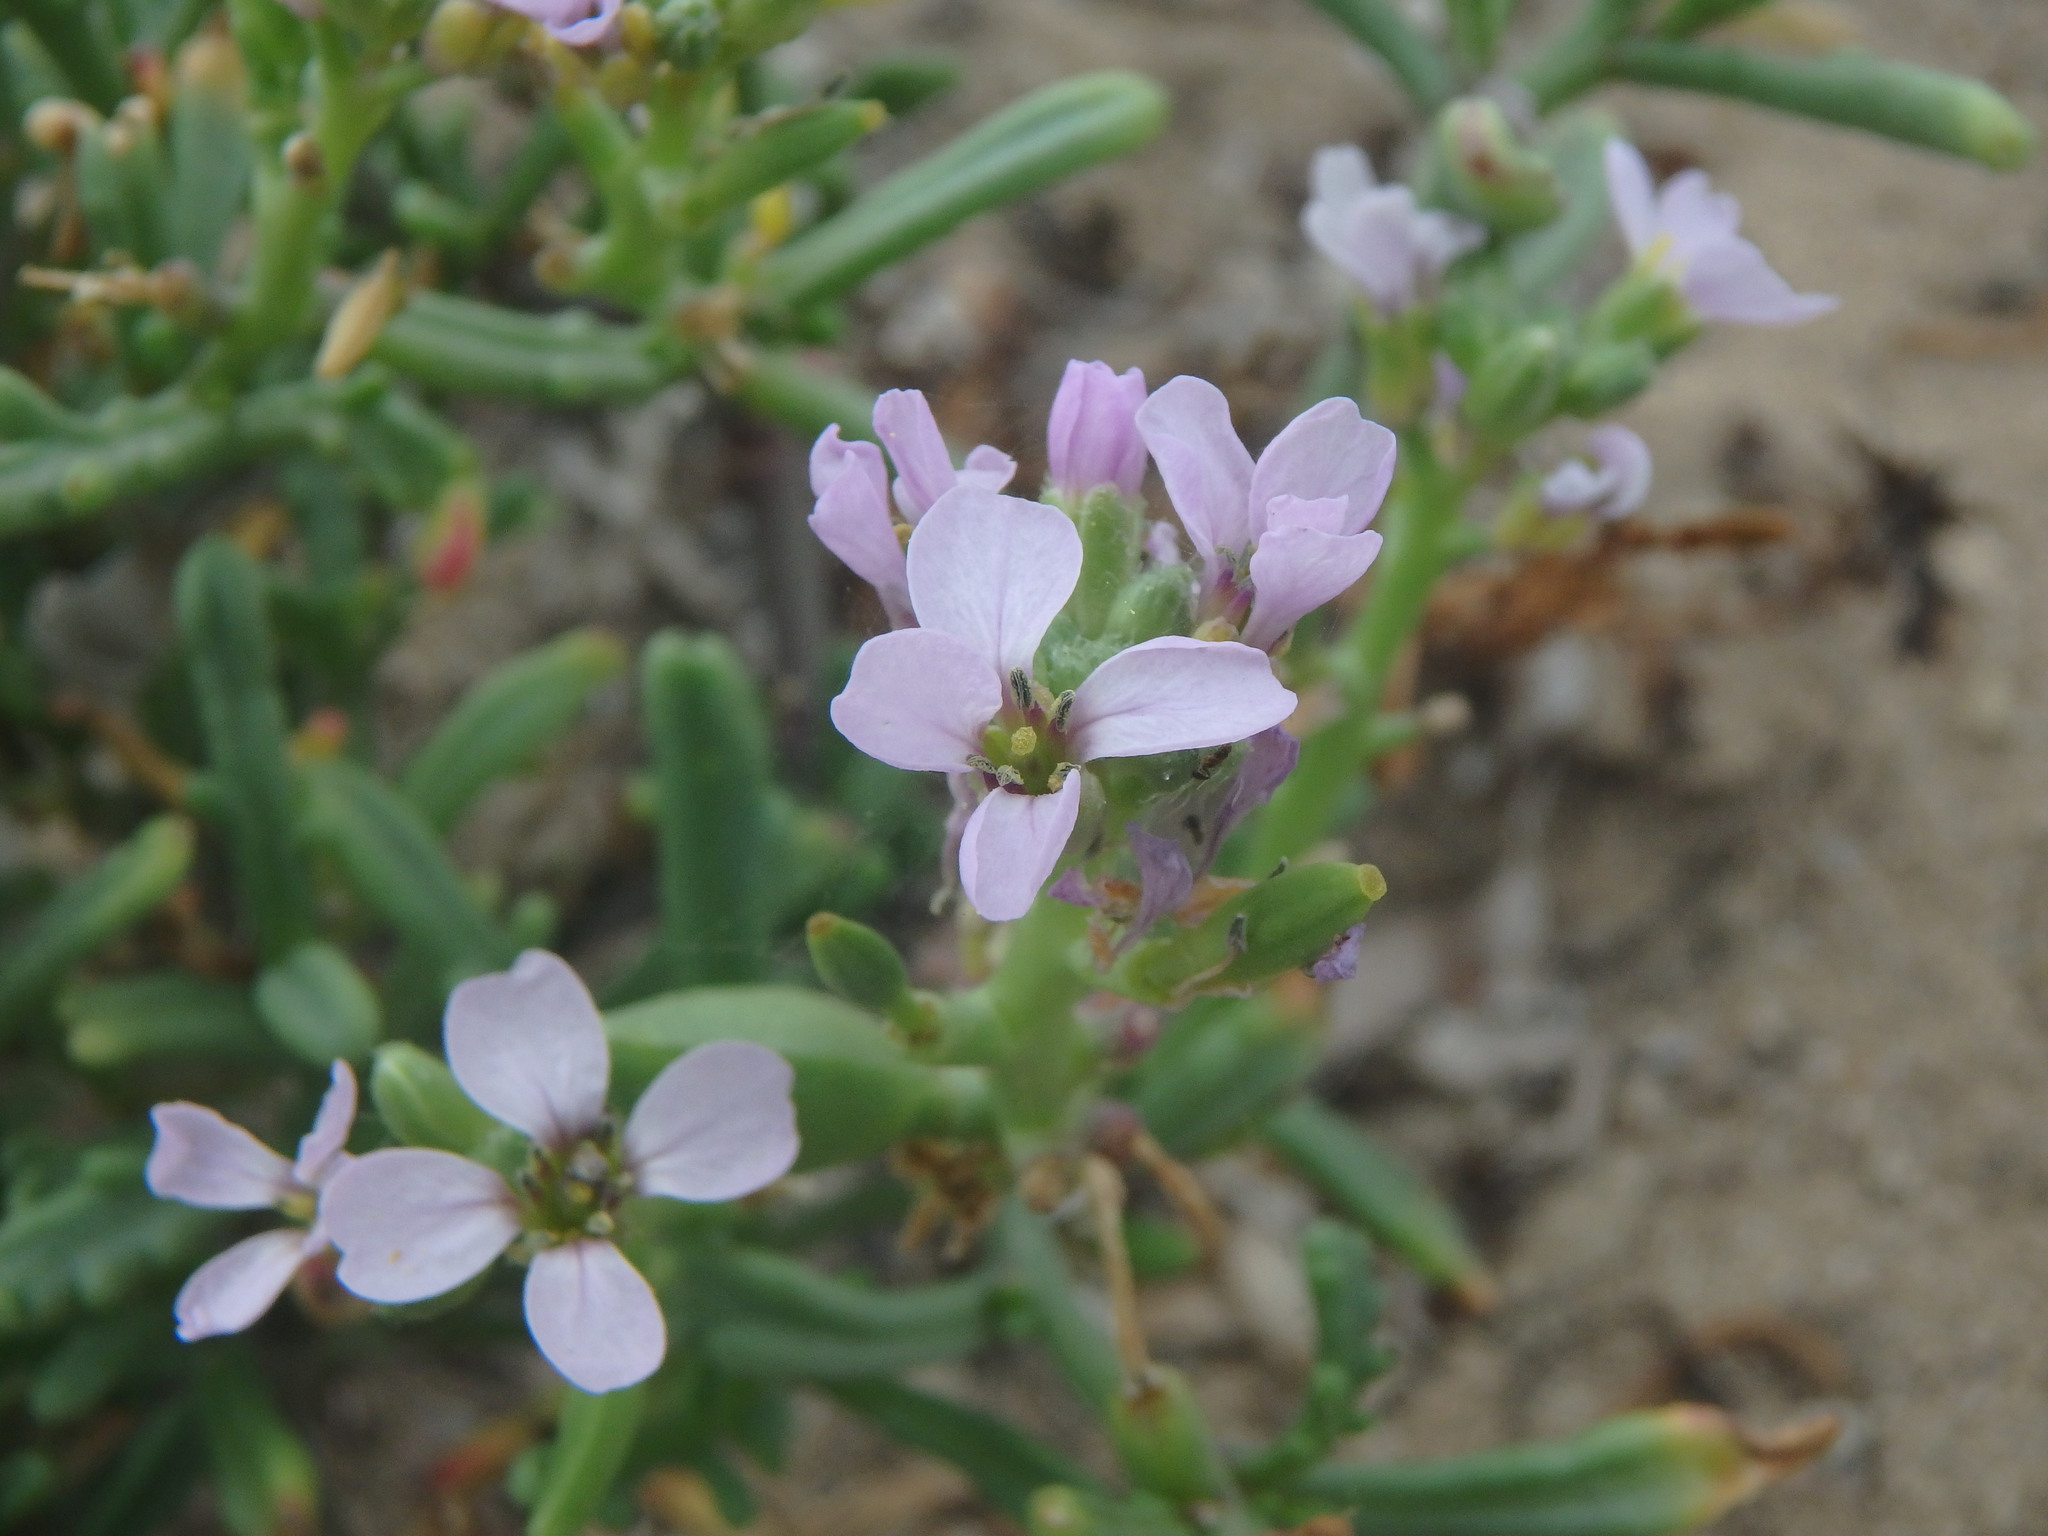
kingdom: Plantae
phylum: Tracheophyta
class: Magnoliopsida
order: Brassicales
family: Brassicaceae
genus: Cakile
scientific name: Cakile maritima
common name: Sea rocket
